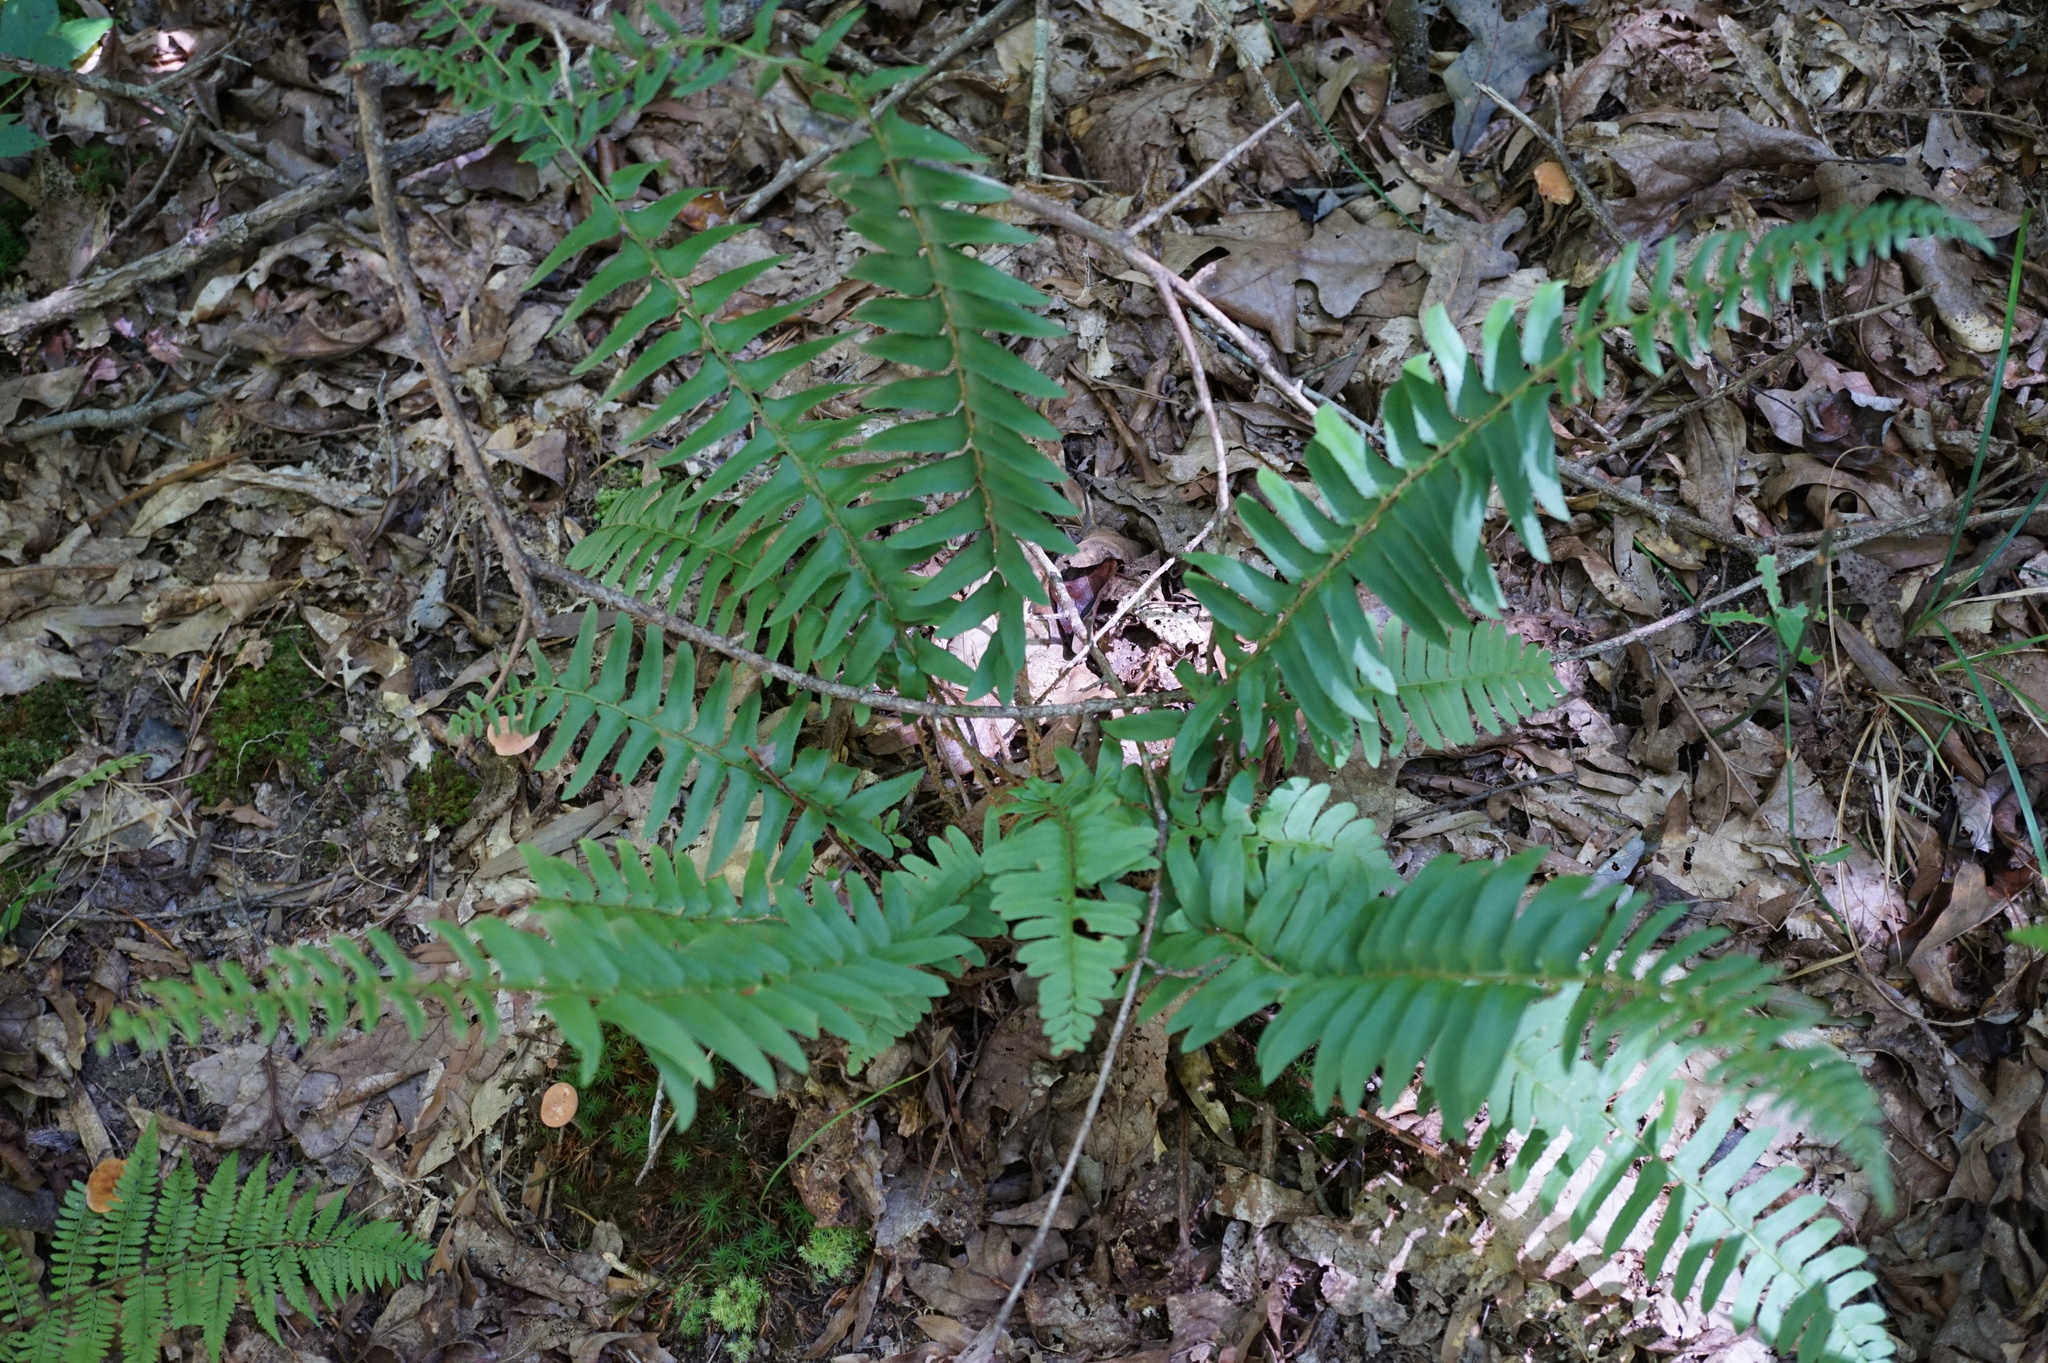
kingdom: Plantae
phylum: Tracheophyta
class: Polypodiopsida
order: Polypodiales
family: Dryopteridaceae
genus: Polystichum
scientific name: Polystichum acrostichoides
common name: Christmas fern
